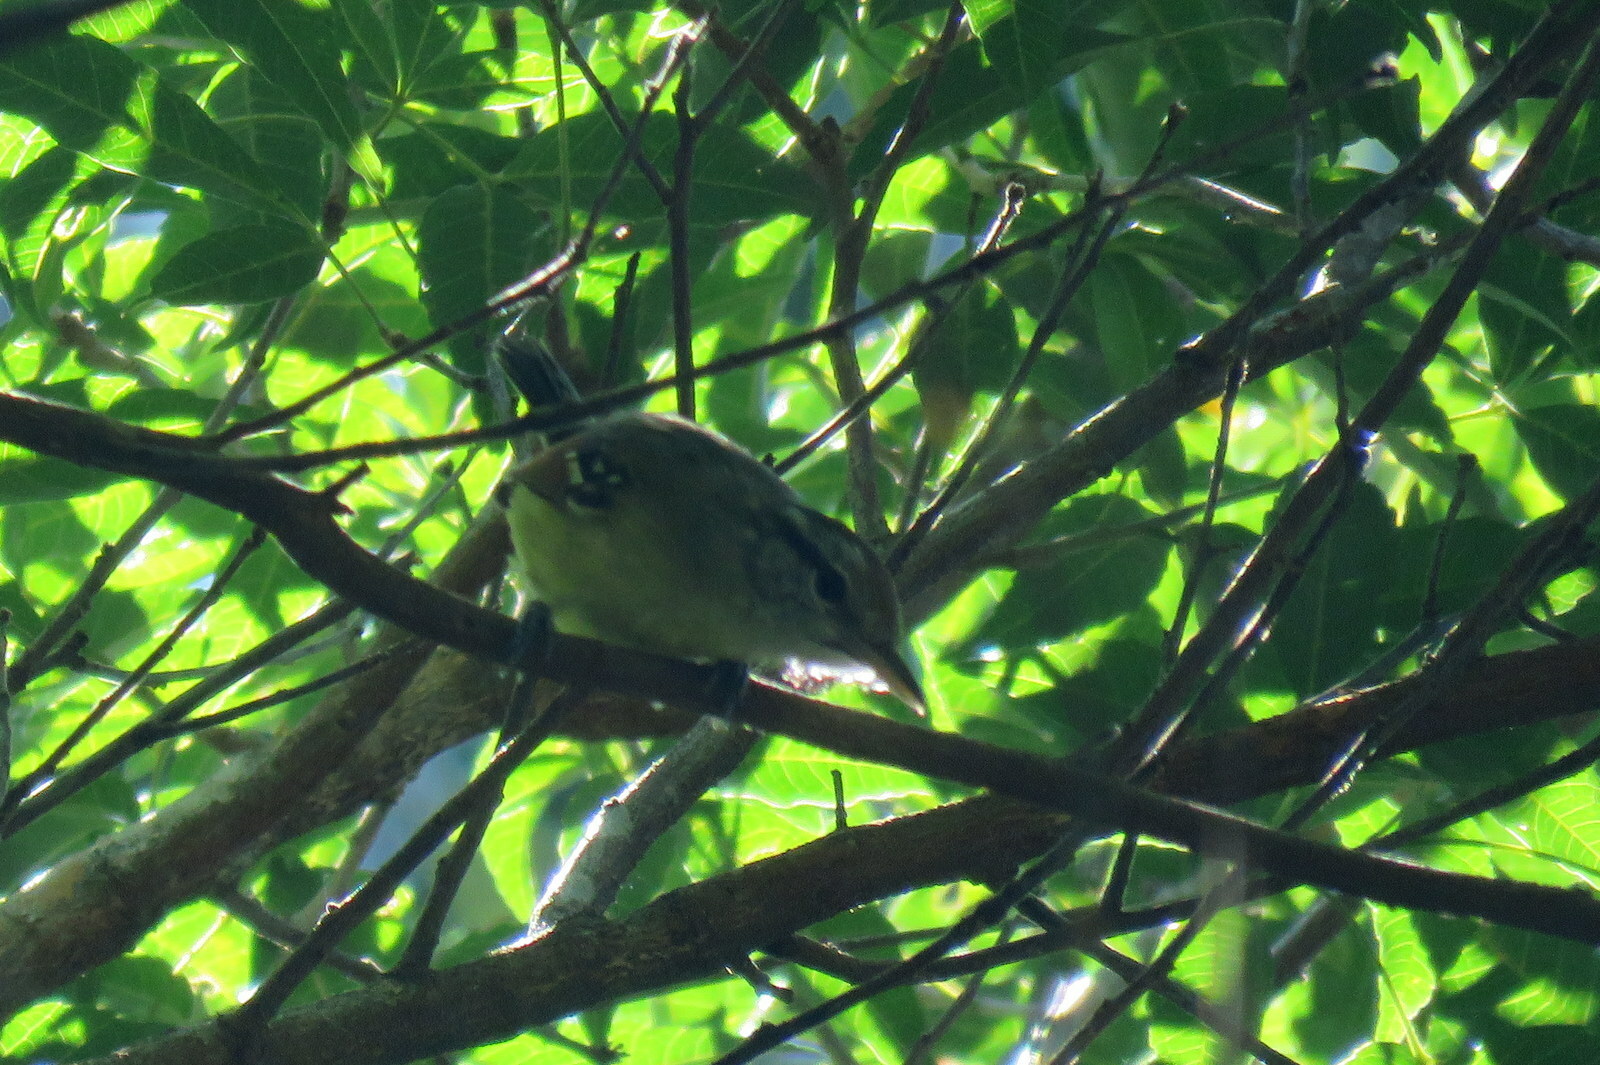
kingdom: Animalia
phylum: Chordata
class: Aves
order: Passeriformes
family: Thamnophilidae
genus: Herpsilochmus
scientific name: Herpsilochmus rufimarginatus
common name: Rufous-winged antwren
